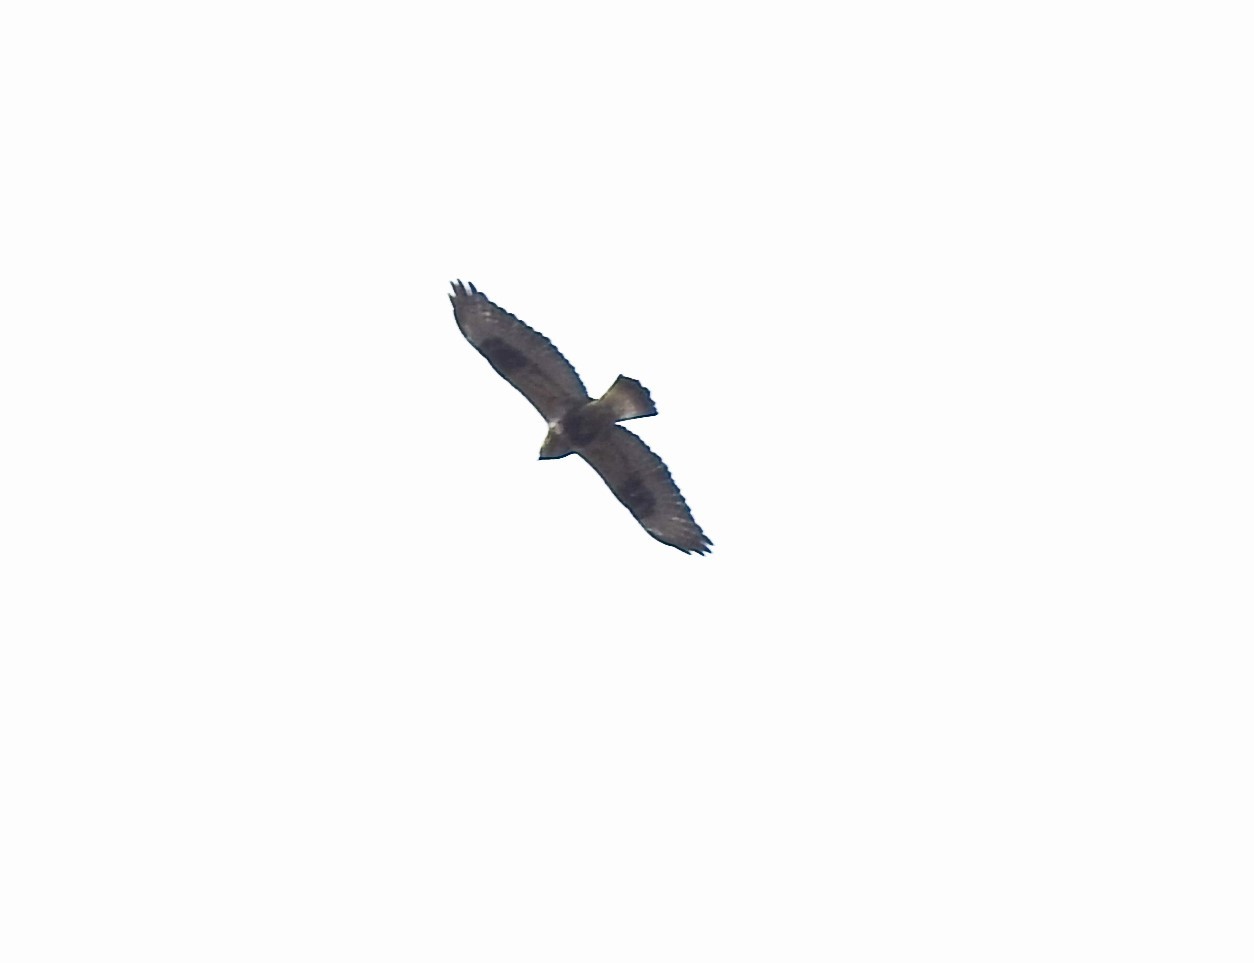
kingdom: Animalia
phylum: Chordata
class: Aves
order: Accipitriformes
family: Accipitridae
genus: Buteo
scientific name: Buteo lagopus
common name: Rough-legged buzzard
